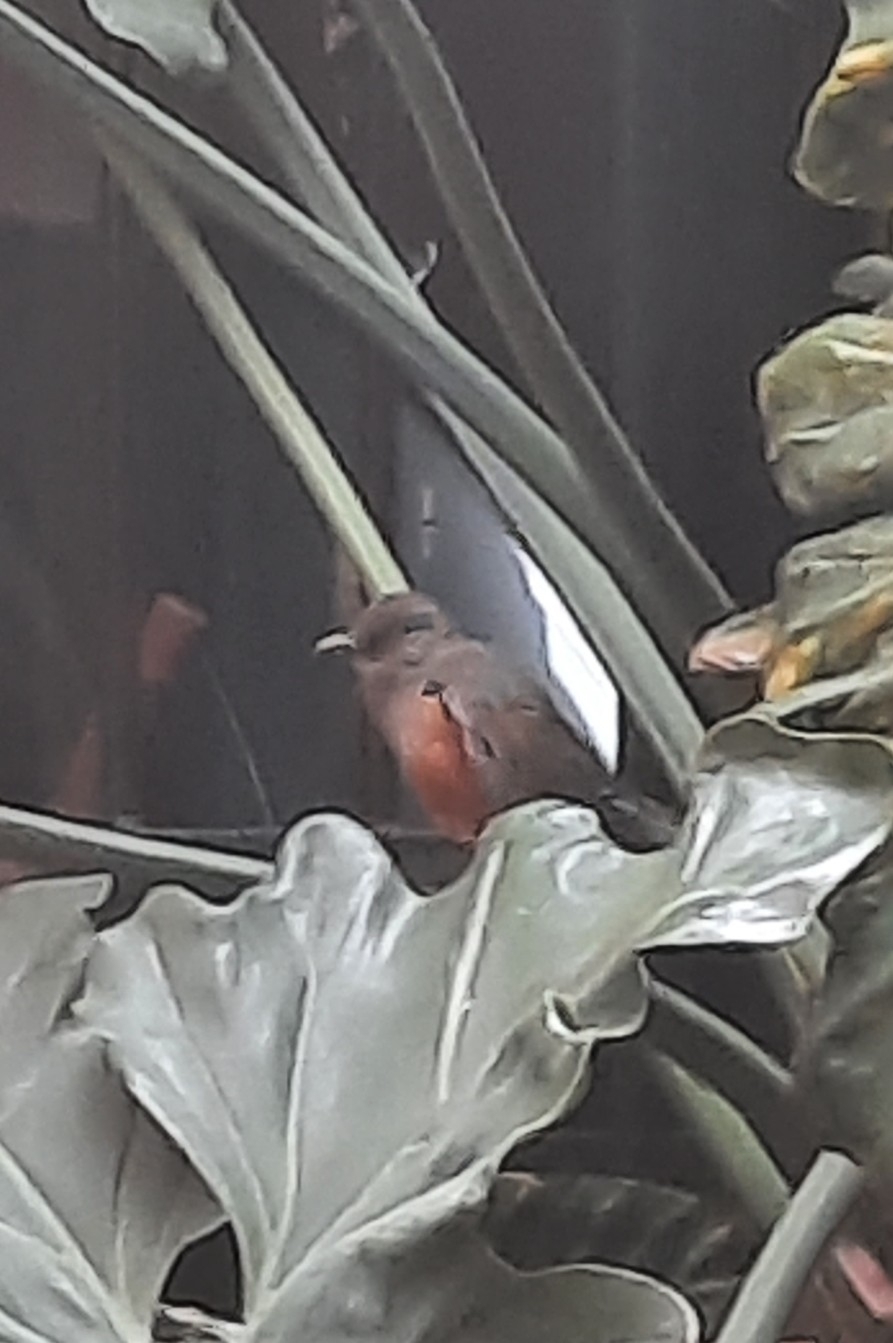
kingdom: Animalia
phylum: Chordata
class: Aves
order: Passeriformes
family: Turdidae
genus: Turdus
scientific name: Turdus rufiventris
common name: Rufous-bellied thrush
